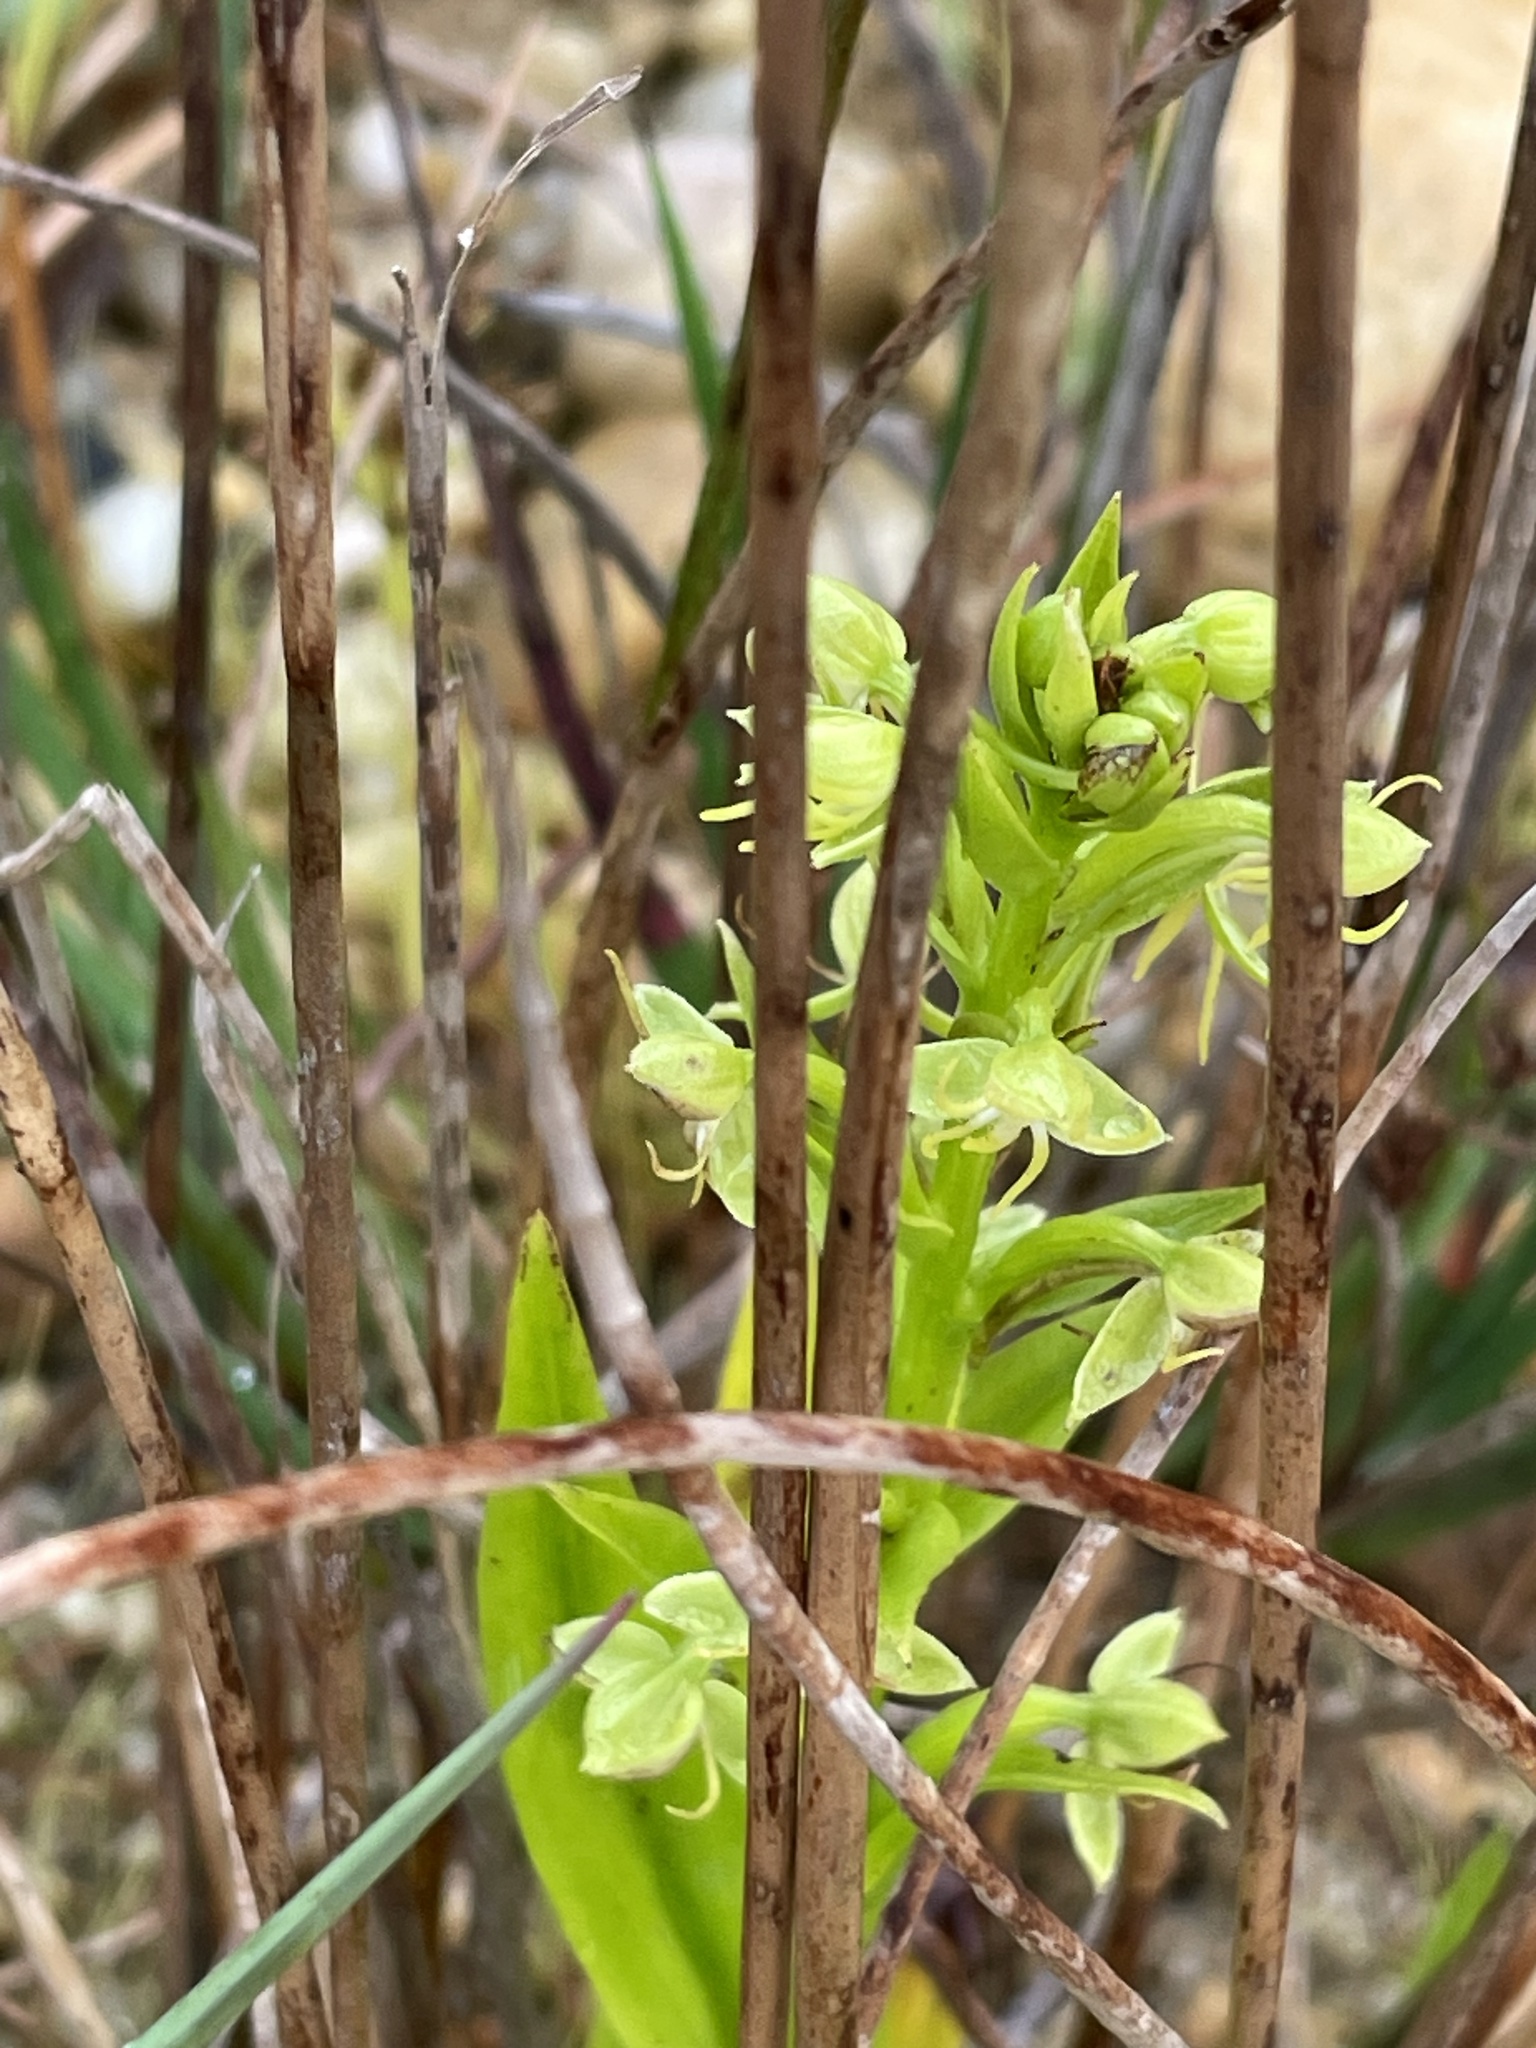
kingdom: Plantae
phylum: Tracheophyta
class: Liliopsida
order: Asparagales
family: Orchidaceae
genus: Habenaria
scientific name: Habenaria repens
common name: Water orchid
